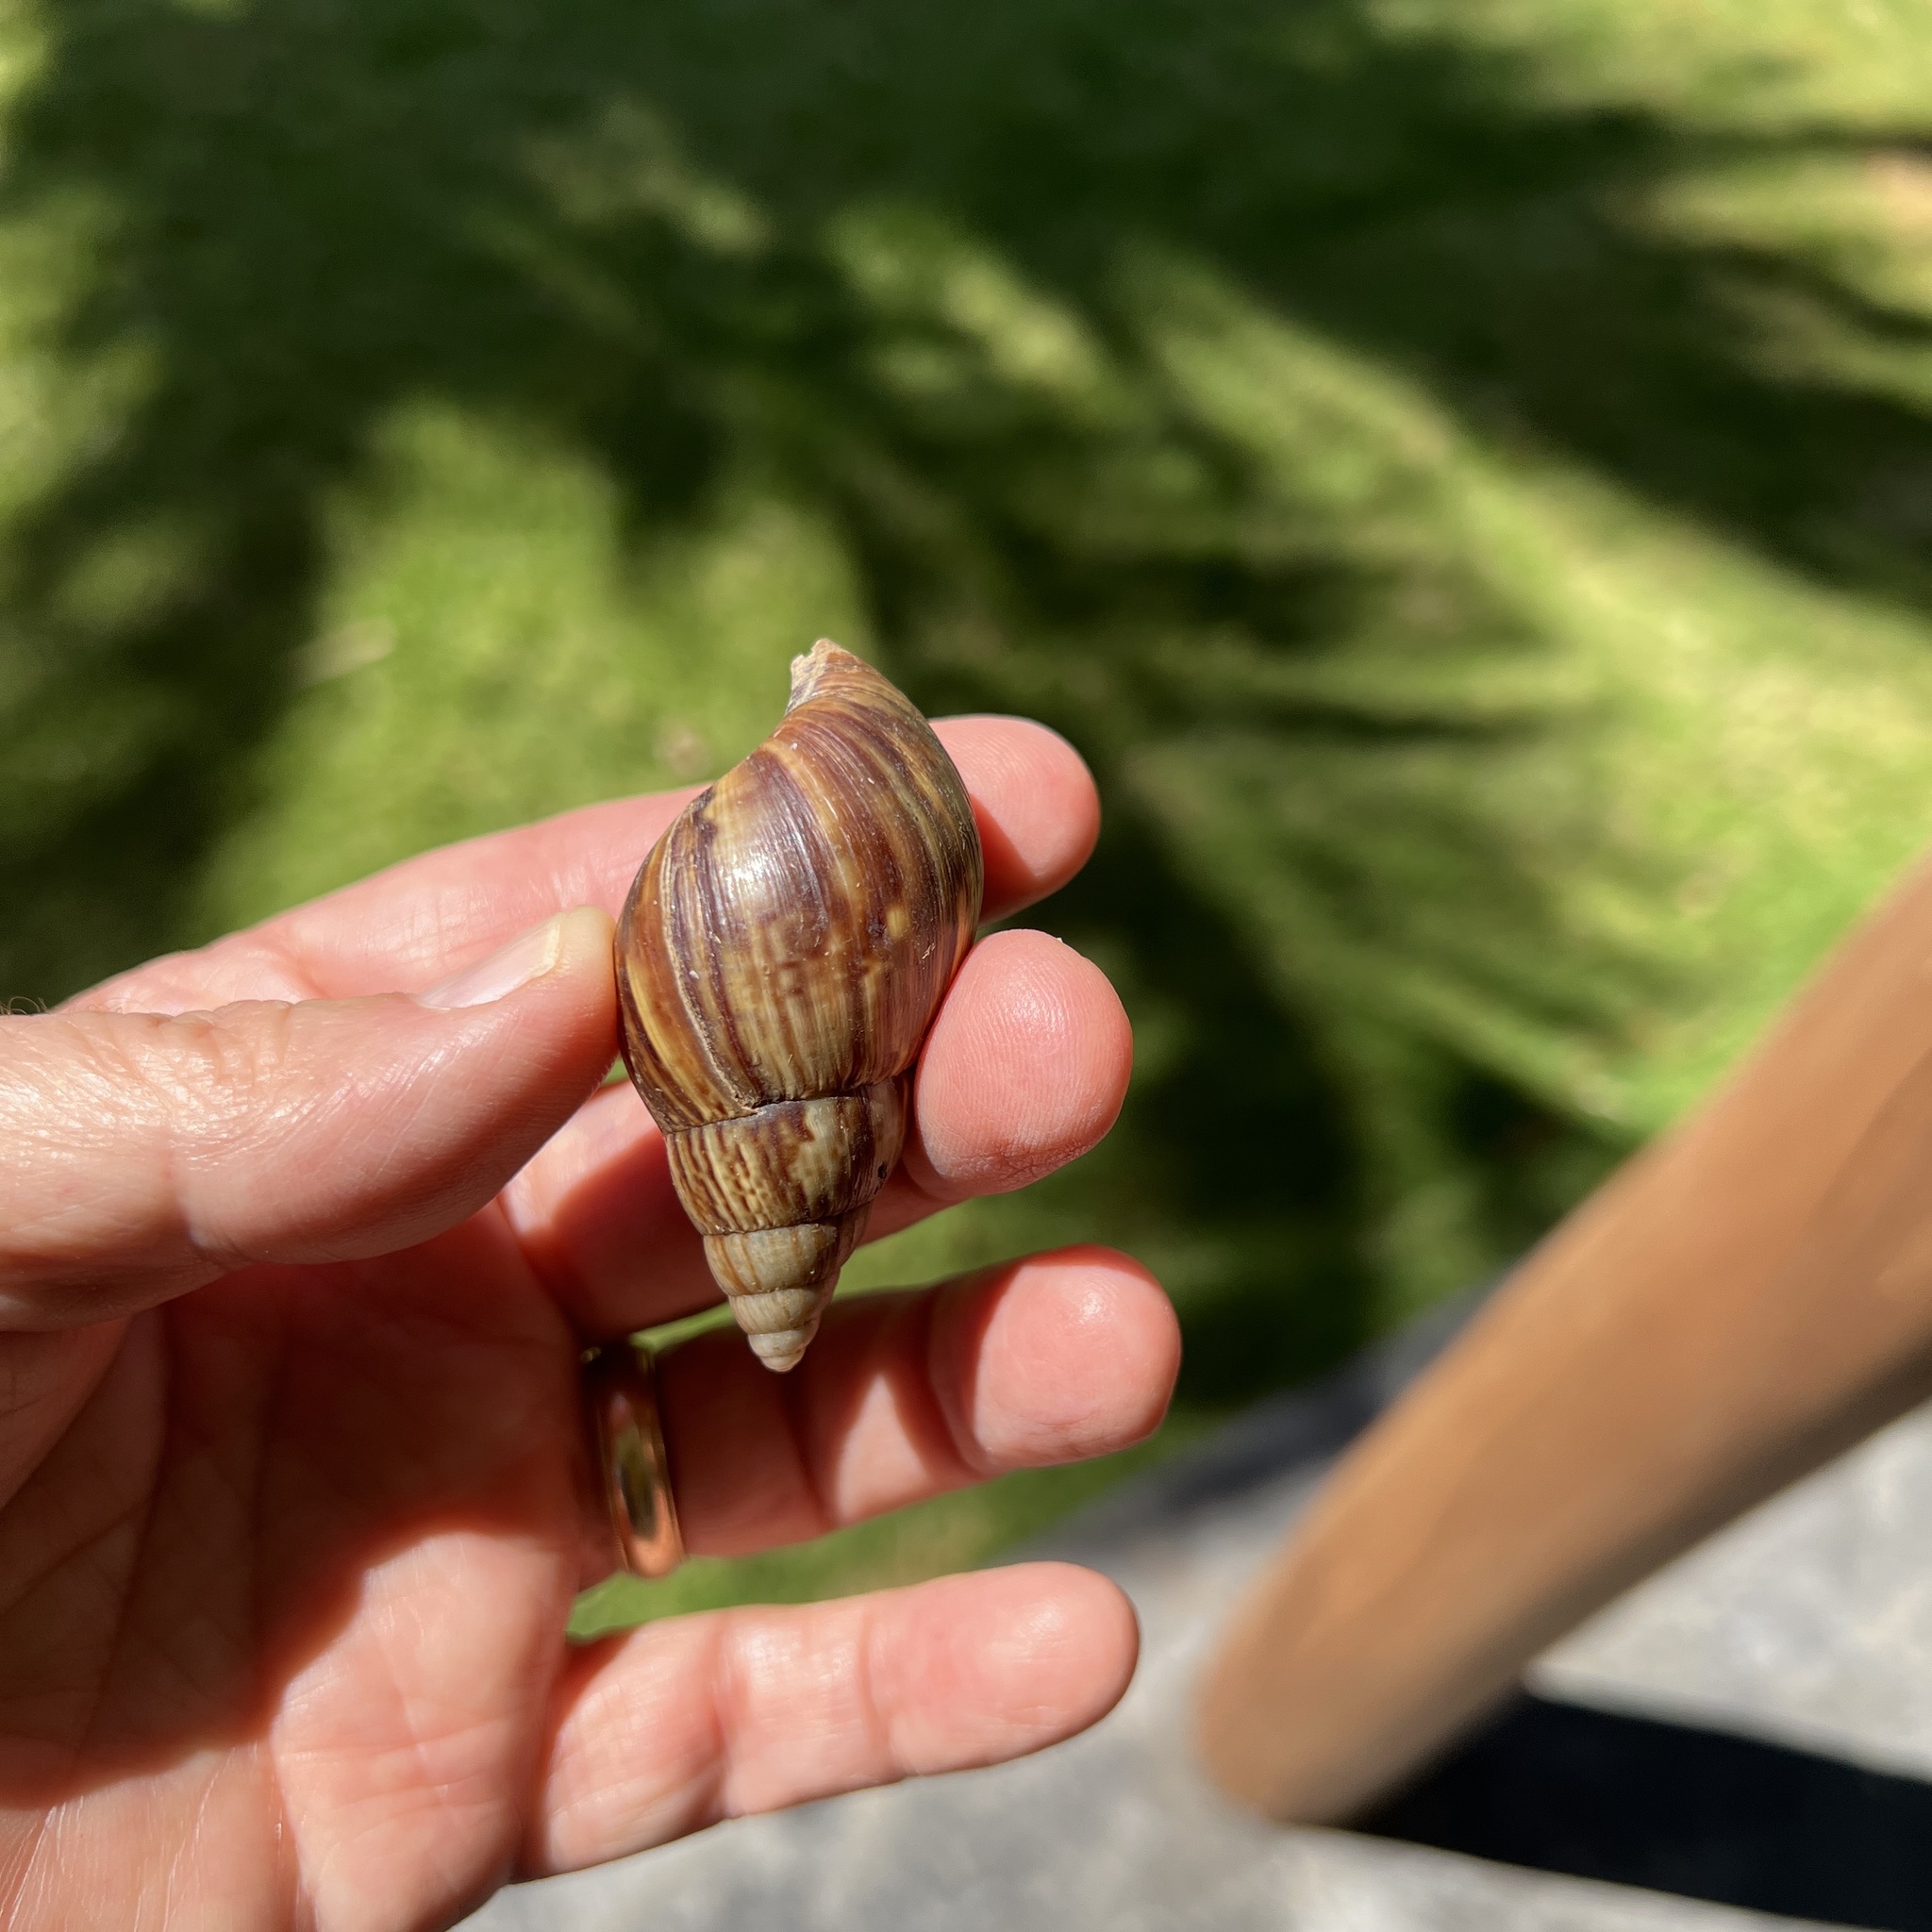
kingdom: Animalia
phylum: Mollusca
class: Gastropoda
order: Stylommatophora
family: Achatinidae
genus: Lissachatina
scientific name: Lissachatina fulica
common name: Giant african snail
